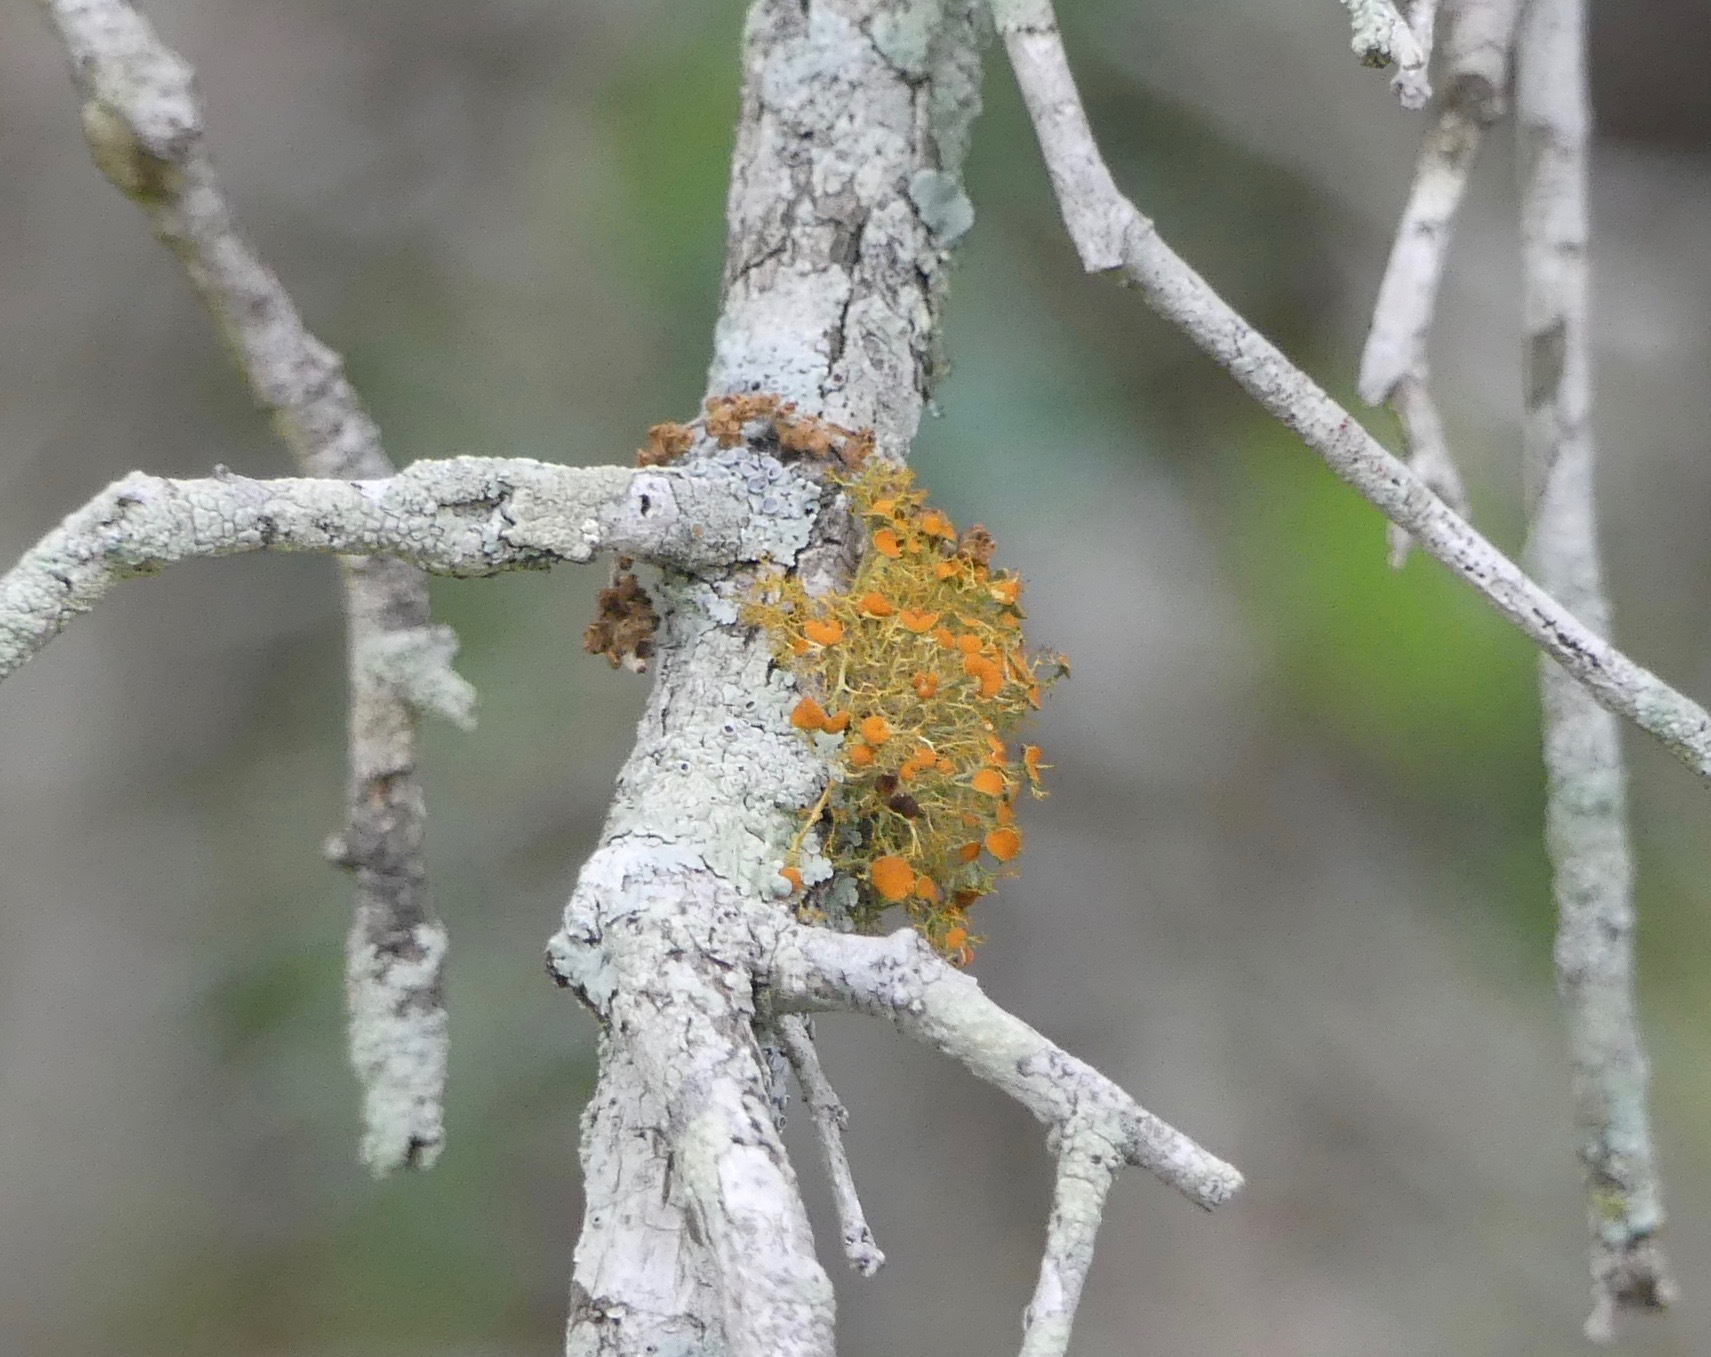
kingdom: Fungi
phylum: Ascomycota
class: Lecanoromycetes
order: Teloschistales
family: Teloschistaceae
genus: Teloschistes
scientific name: Teloschistes exilis
